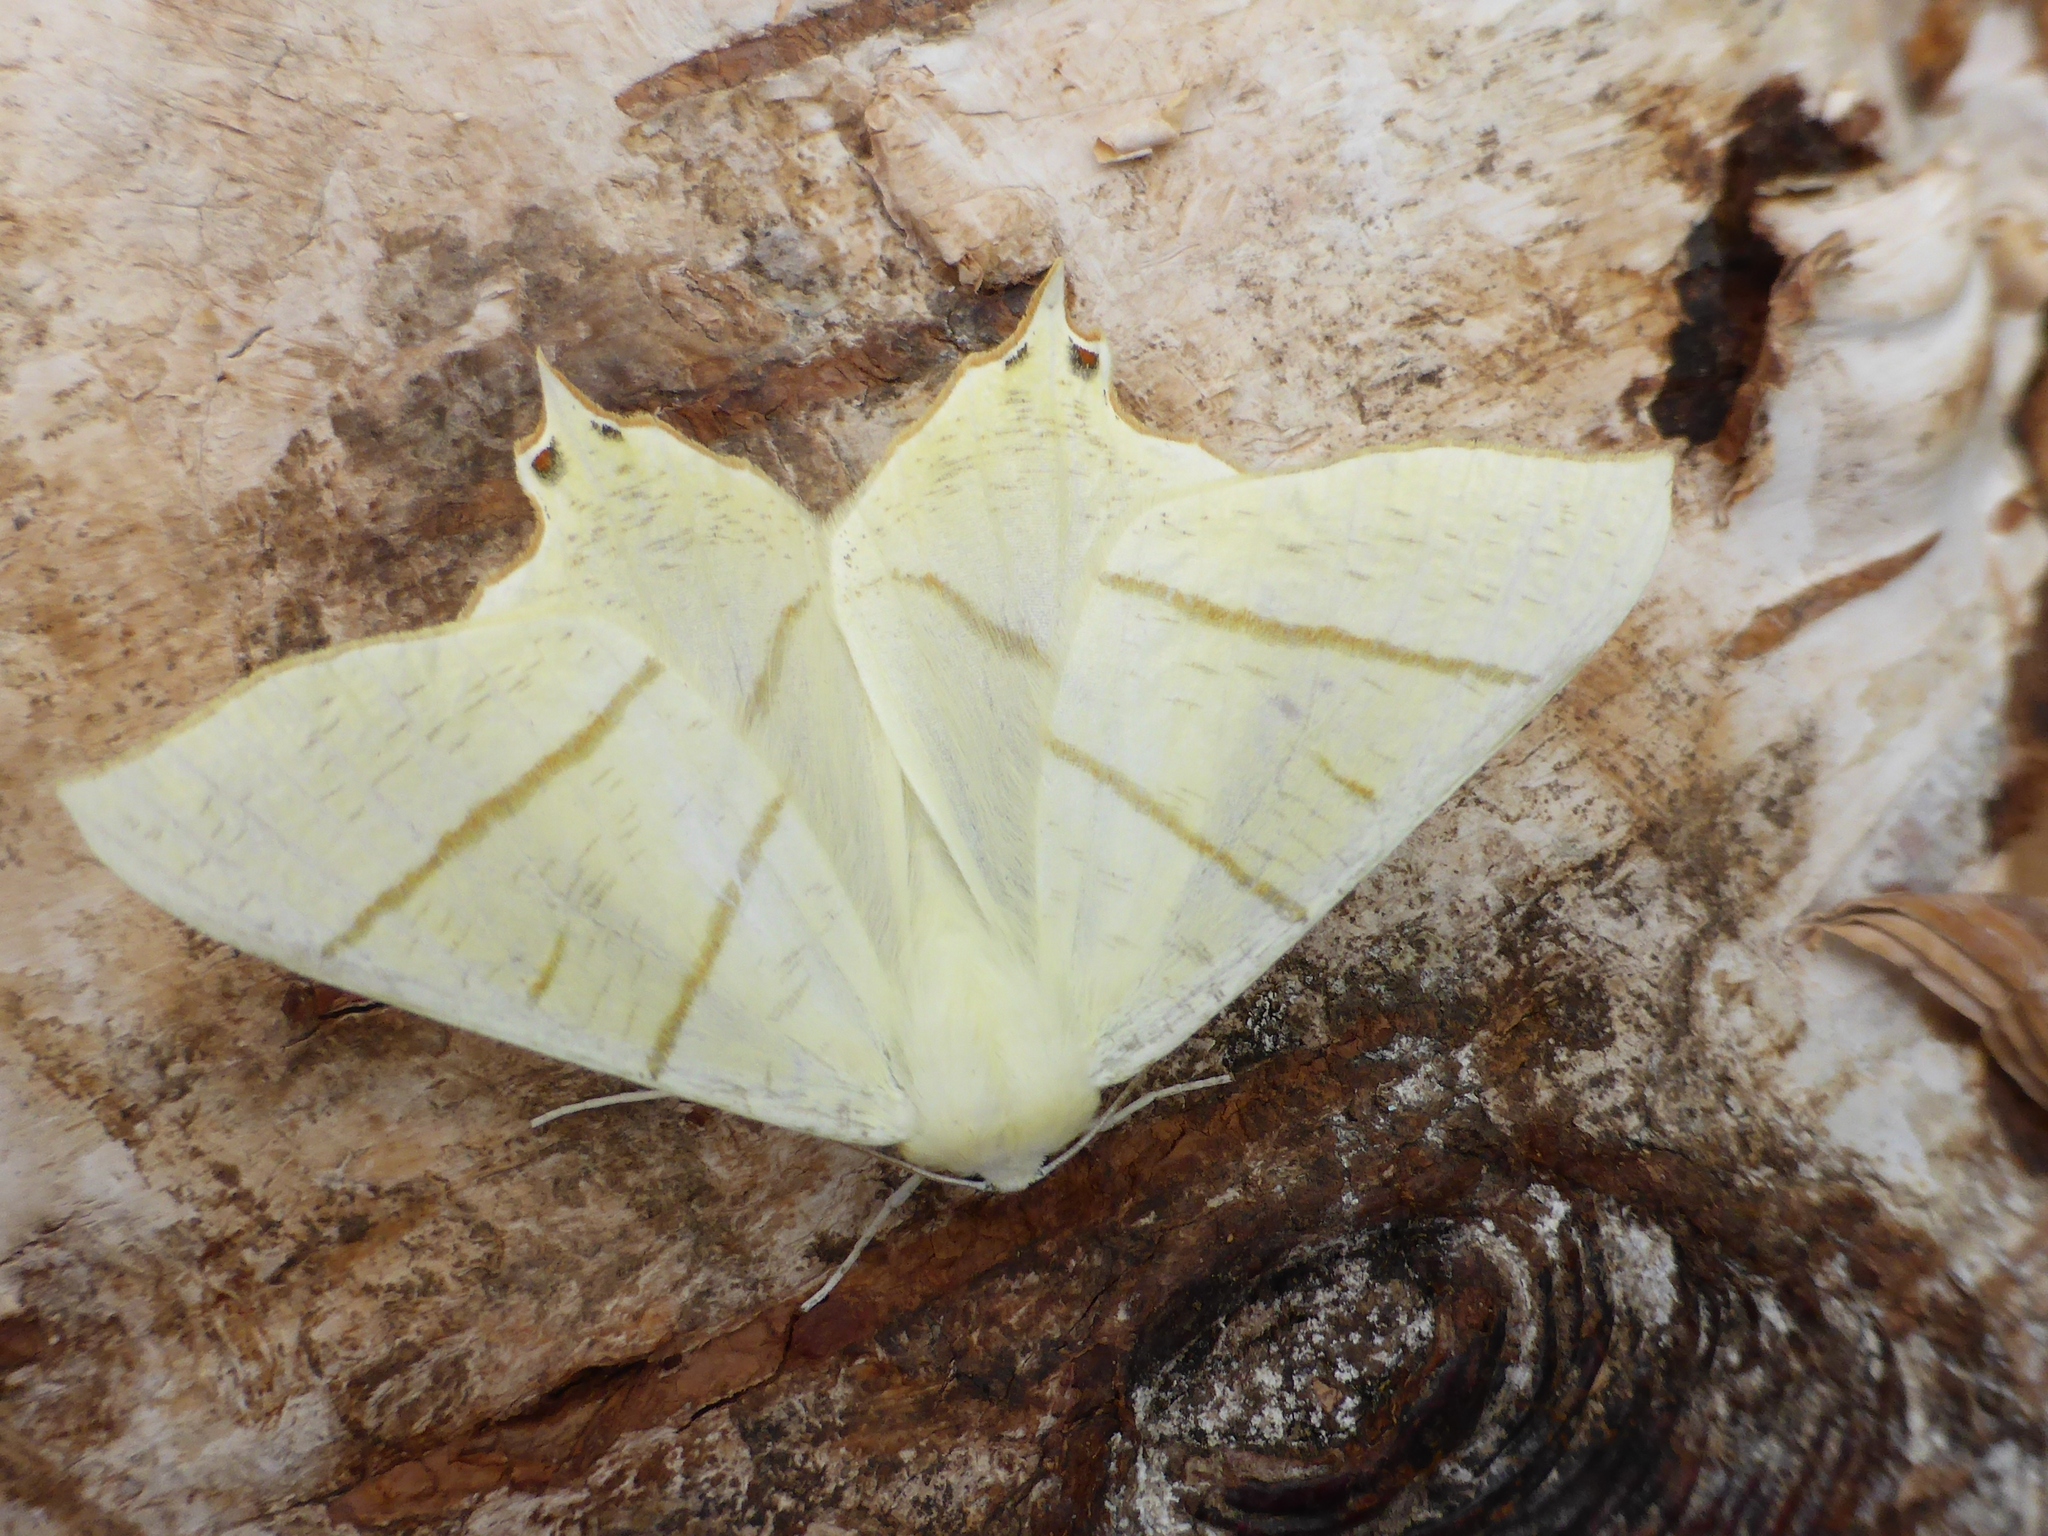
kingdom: Animalia
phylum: Arthropoda
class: Insecta
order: Lepidoptera
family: Geometridae
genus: Ourapteryx
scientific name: Ourapteryx sambucaria
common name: Swallow-tailed moth
